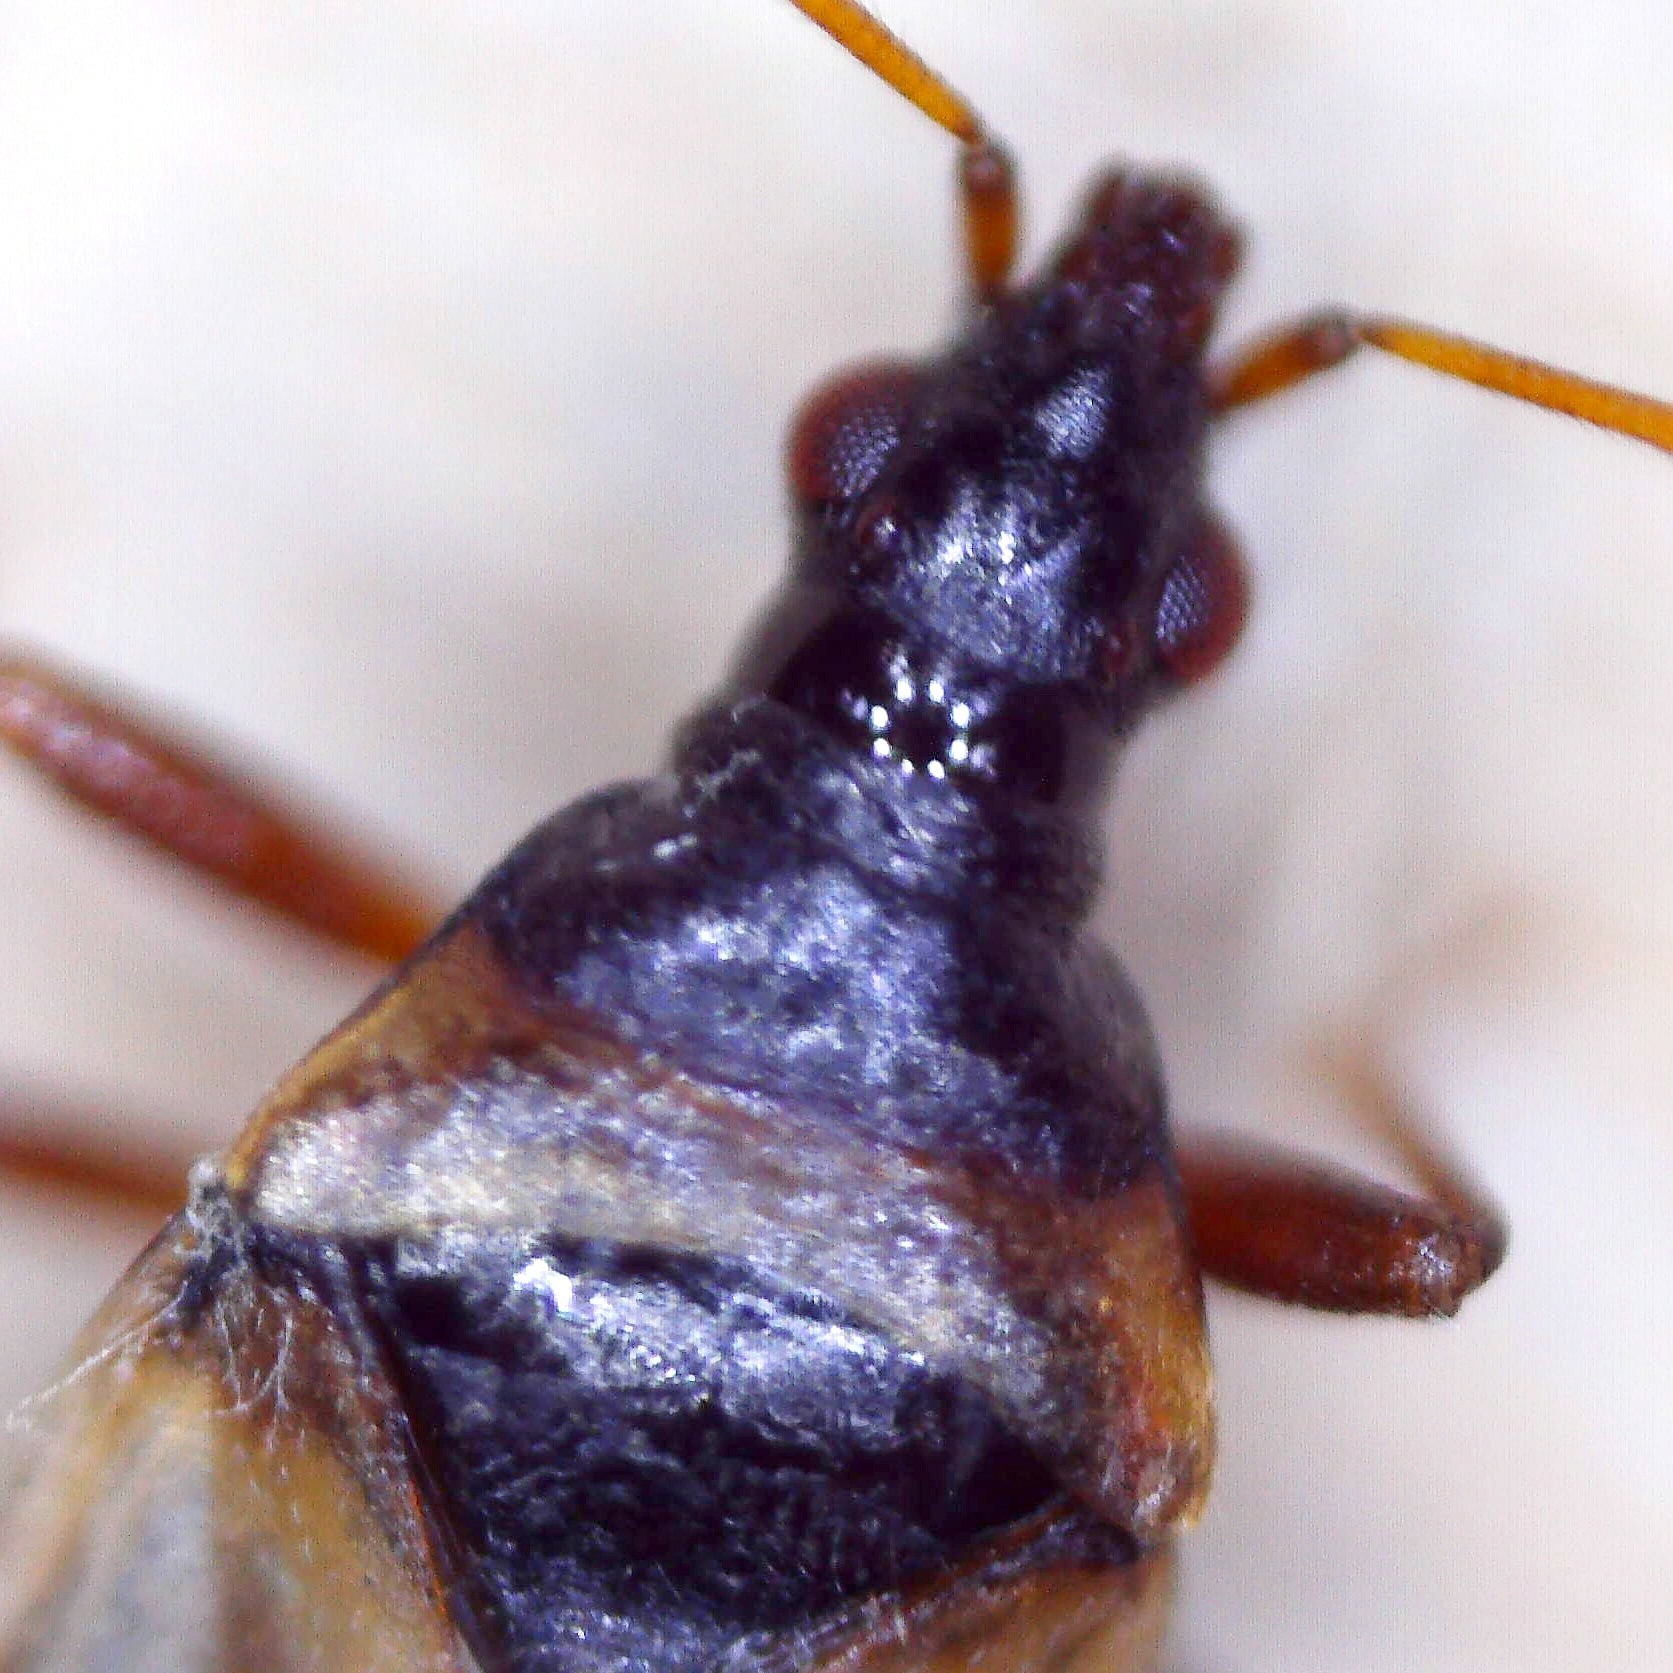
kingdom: Animalia
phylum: Arthropoda
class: Insecta
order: Hemiptera
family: Anthocoridae
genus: Anthocoris
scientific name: Anthocoris limbatus
